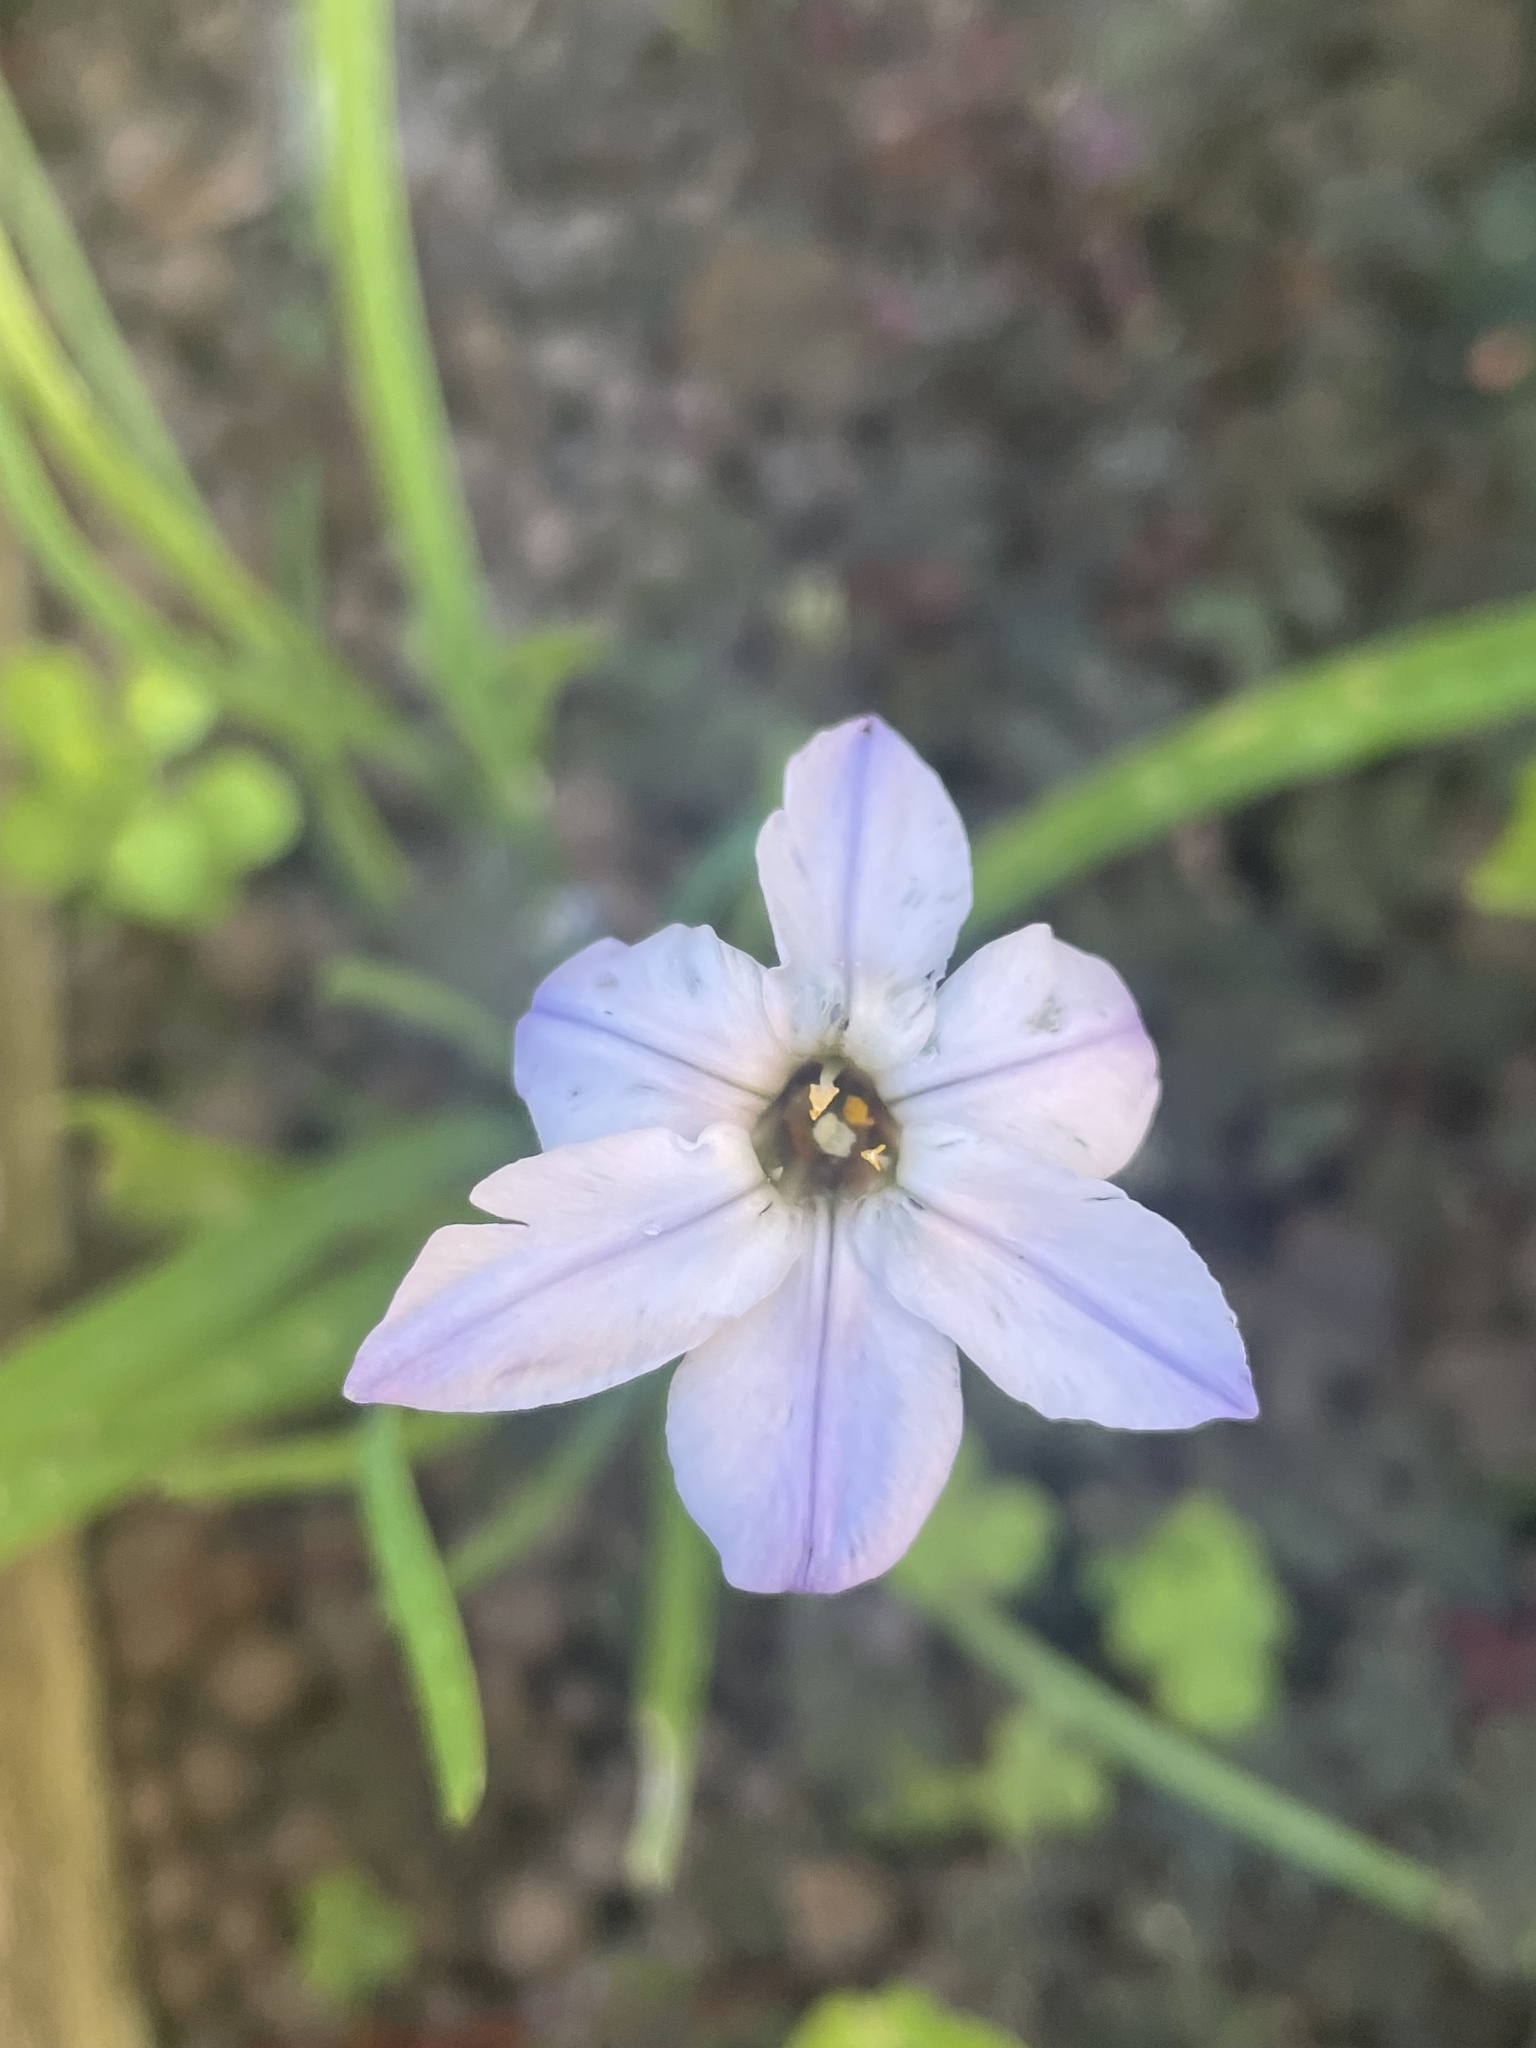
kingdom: Plantae
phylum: Tracheophyta
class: Liliopsida
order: Asparagales
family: Amaryllidaceae
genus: Ipheion
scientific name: Ipheion uniflorum
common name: Spring starflower
